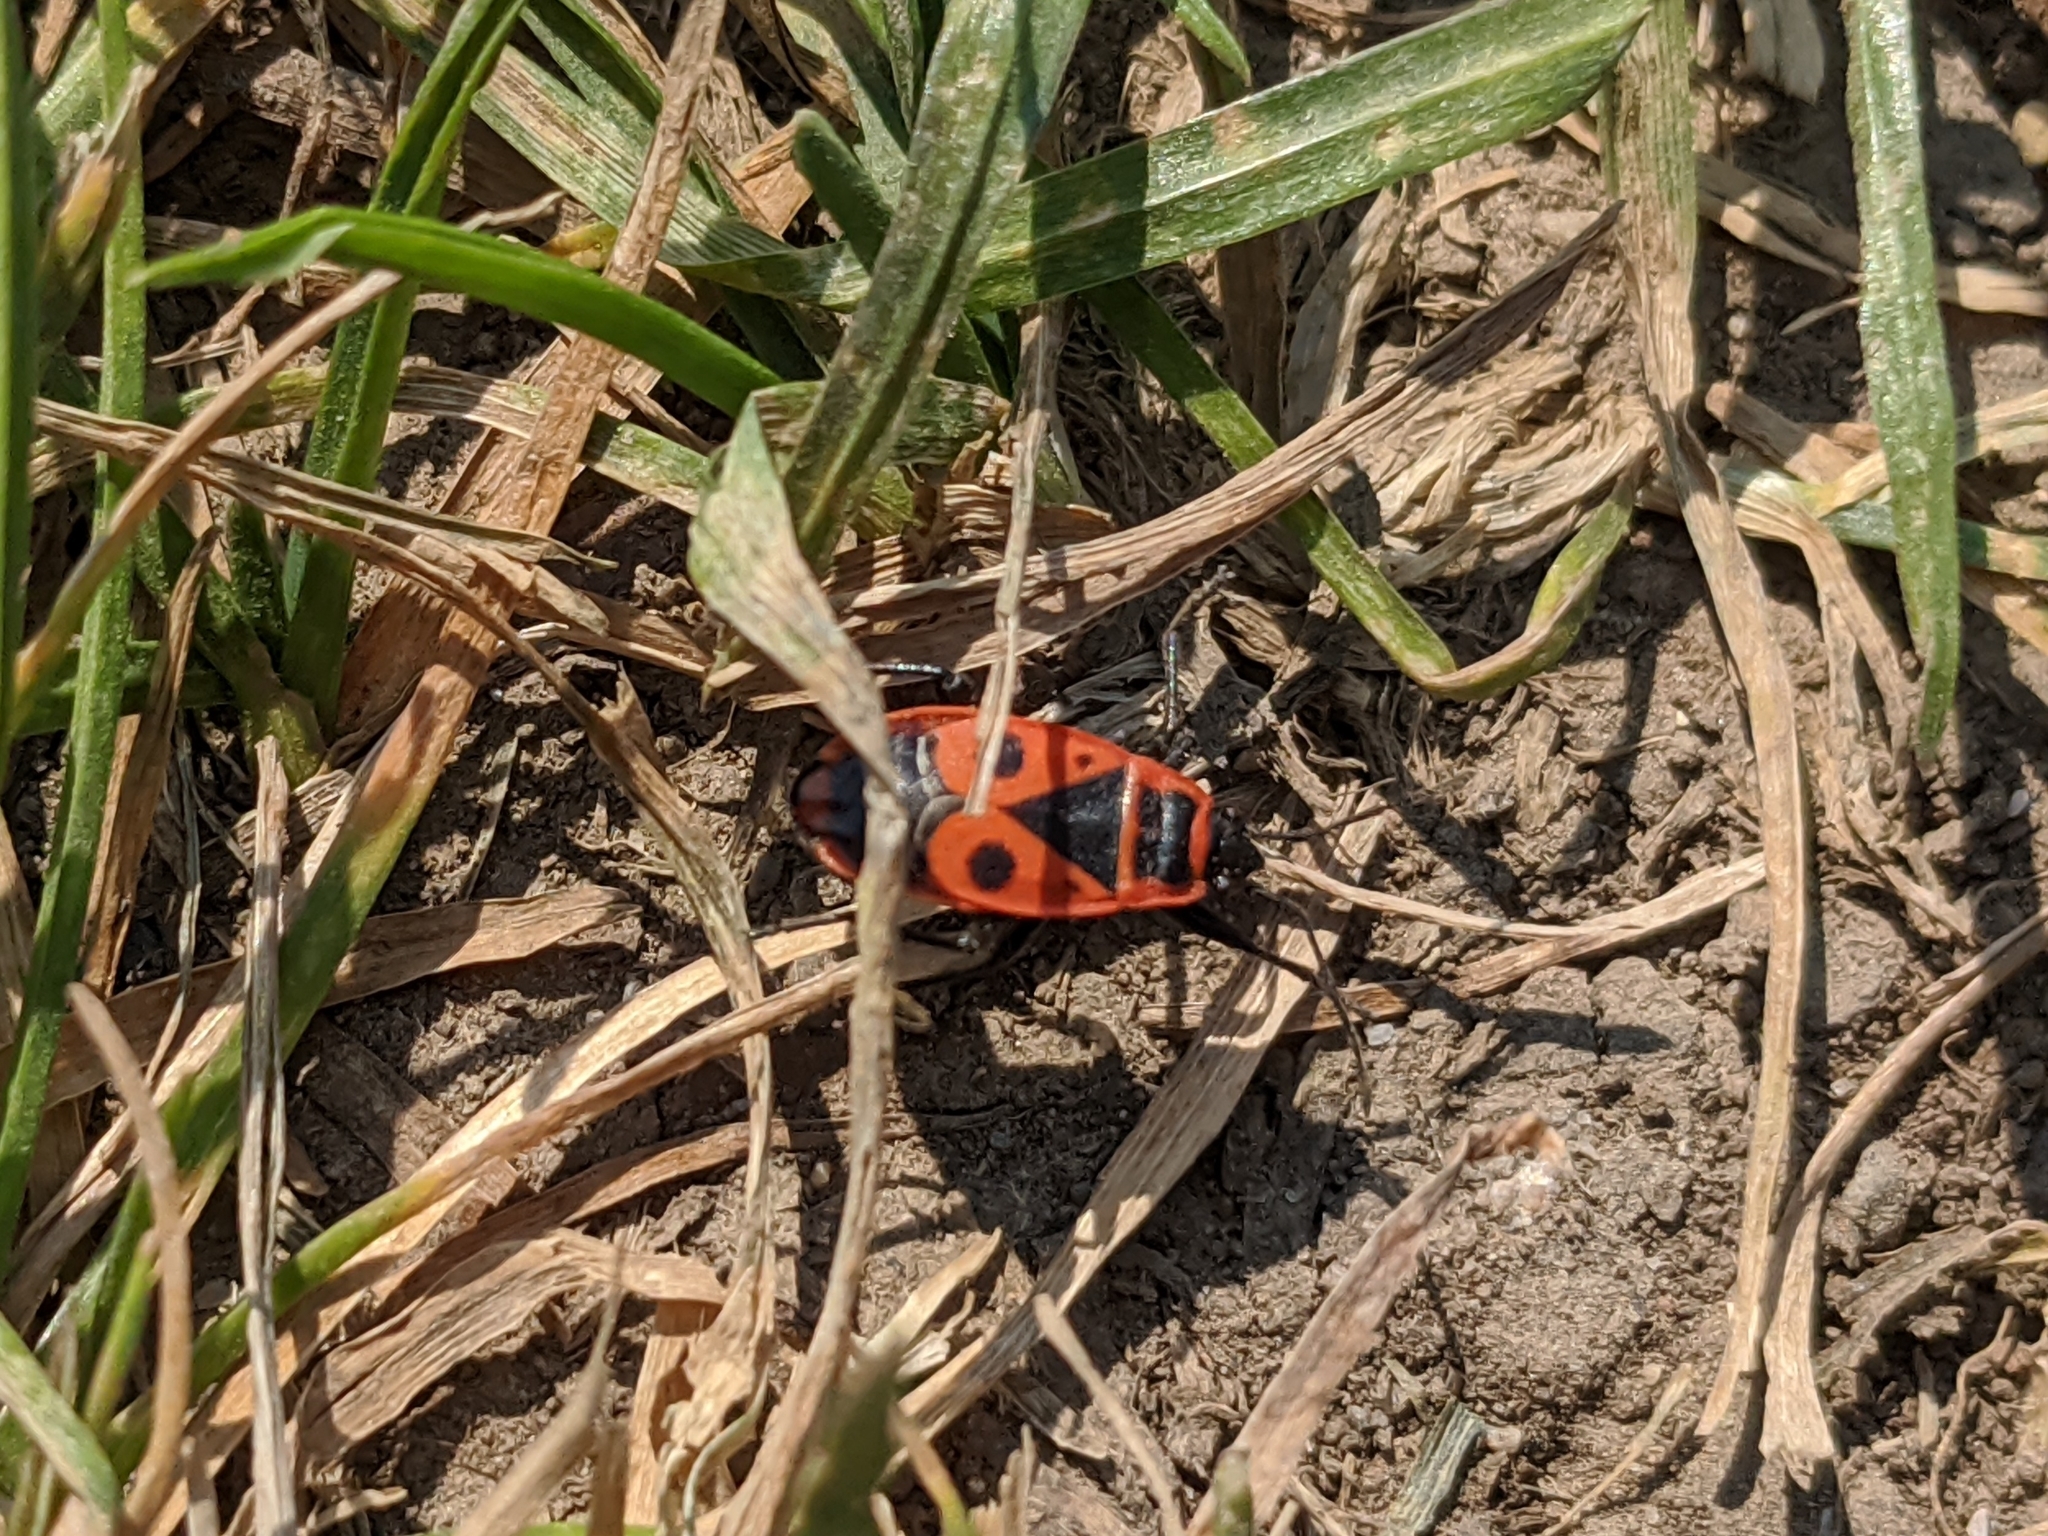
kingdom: Animalia
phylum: Arthropoda
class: Insecta
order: Hemiptera
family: Pyrrhocoridae
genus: Pyrrhocoris
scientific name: Pyrrhocoris apterus
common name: Firebug
